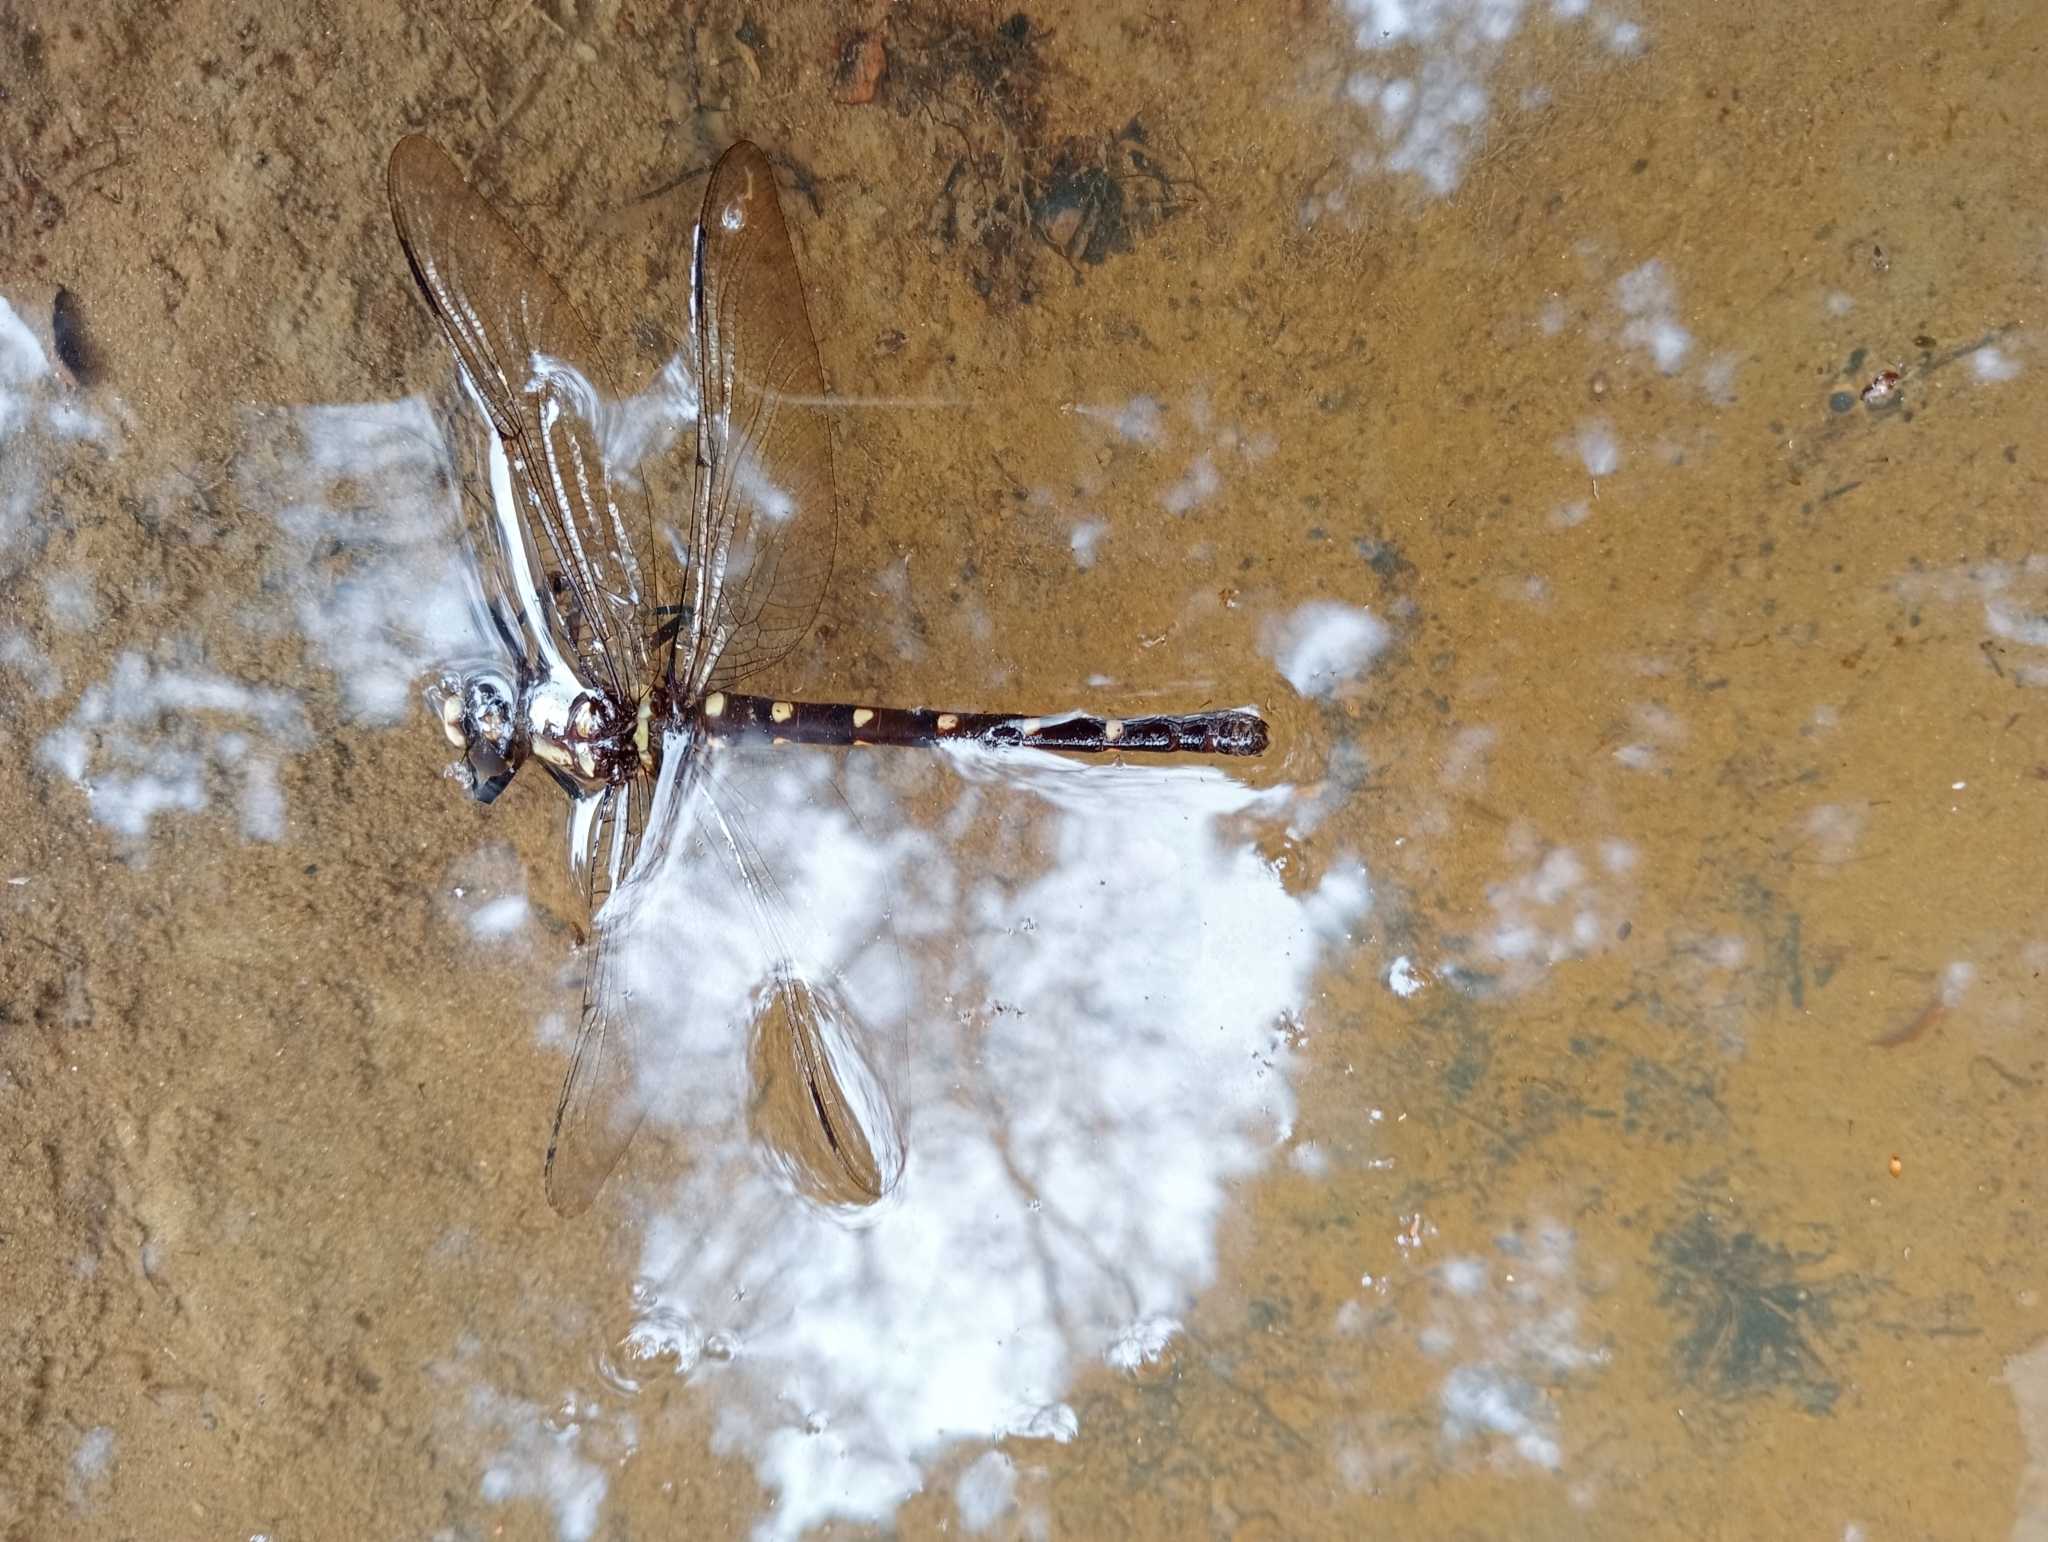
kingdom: Animalia
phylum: Arthropoda
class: Insecta
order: Odonata
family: Petaluridae
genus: Uropetala
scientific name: Uropetala carovei
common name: Bush giant dragonfly
